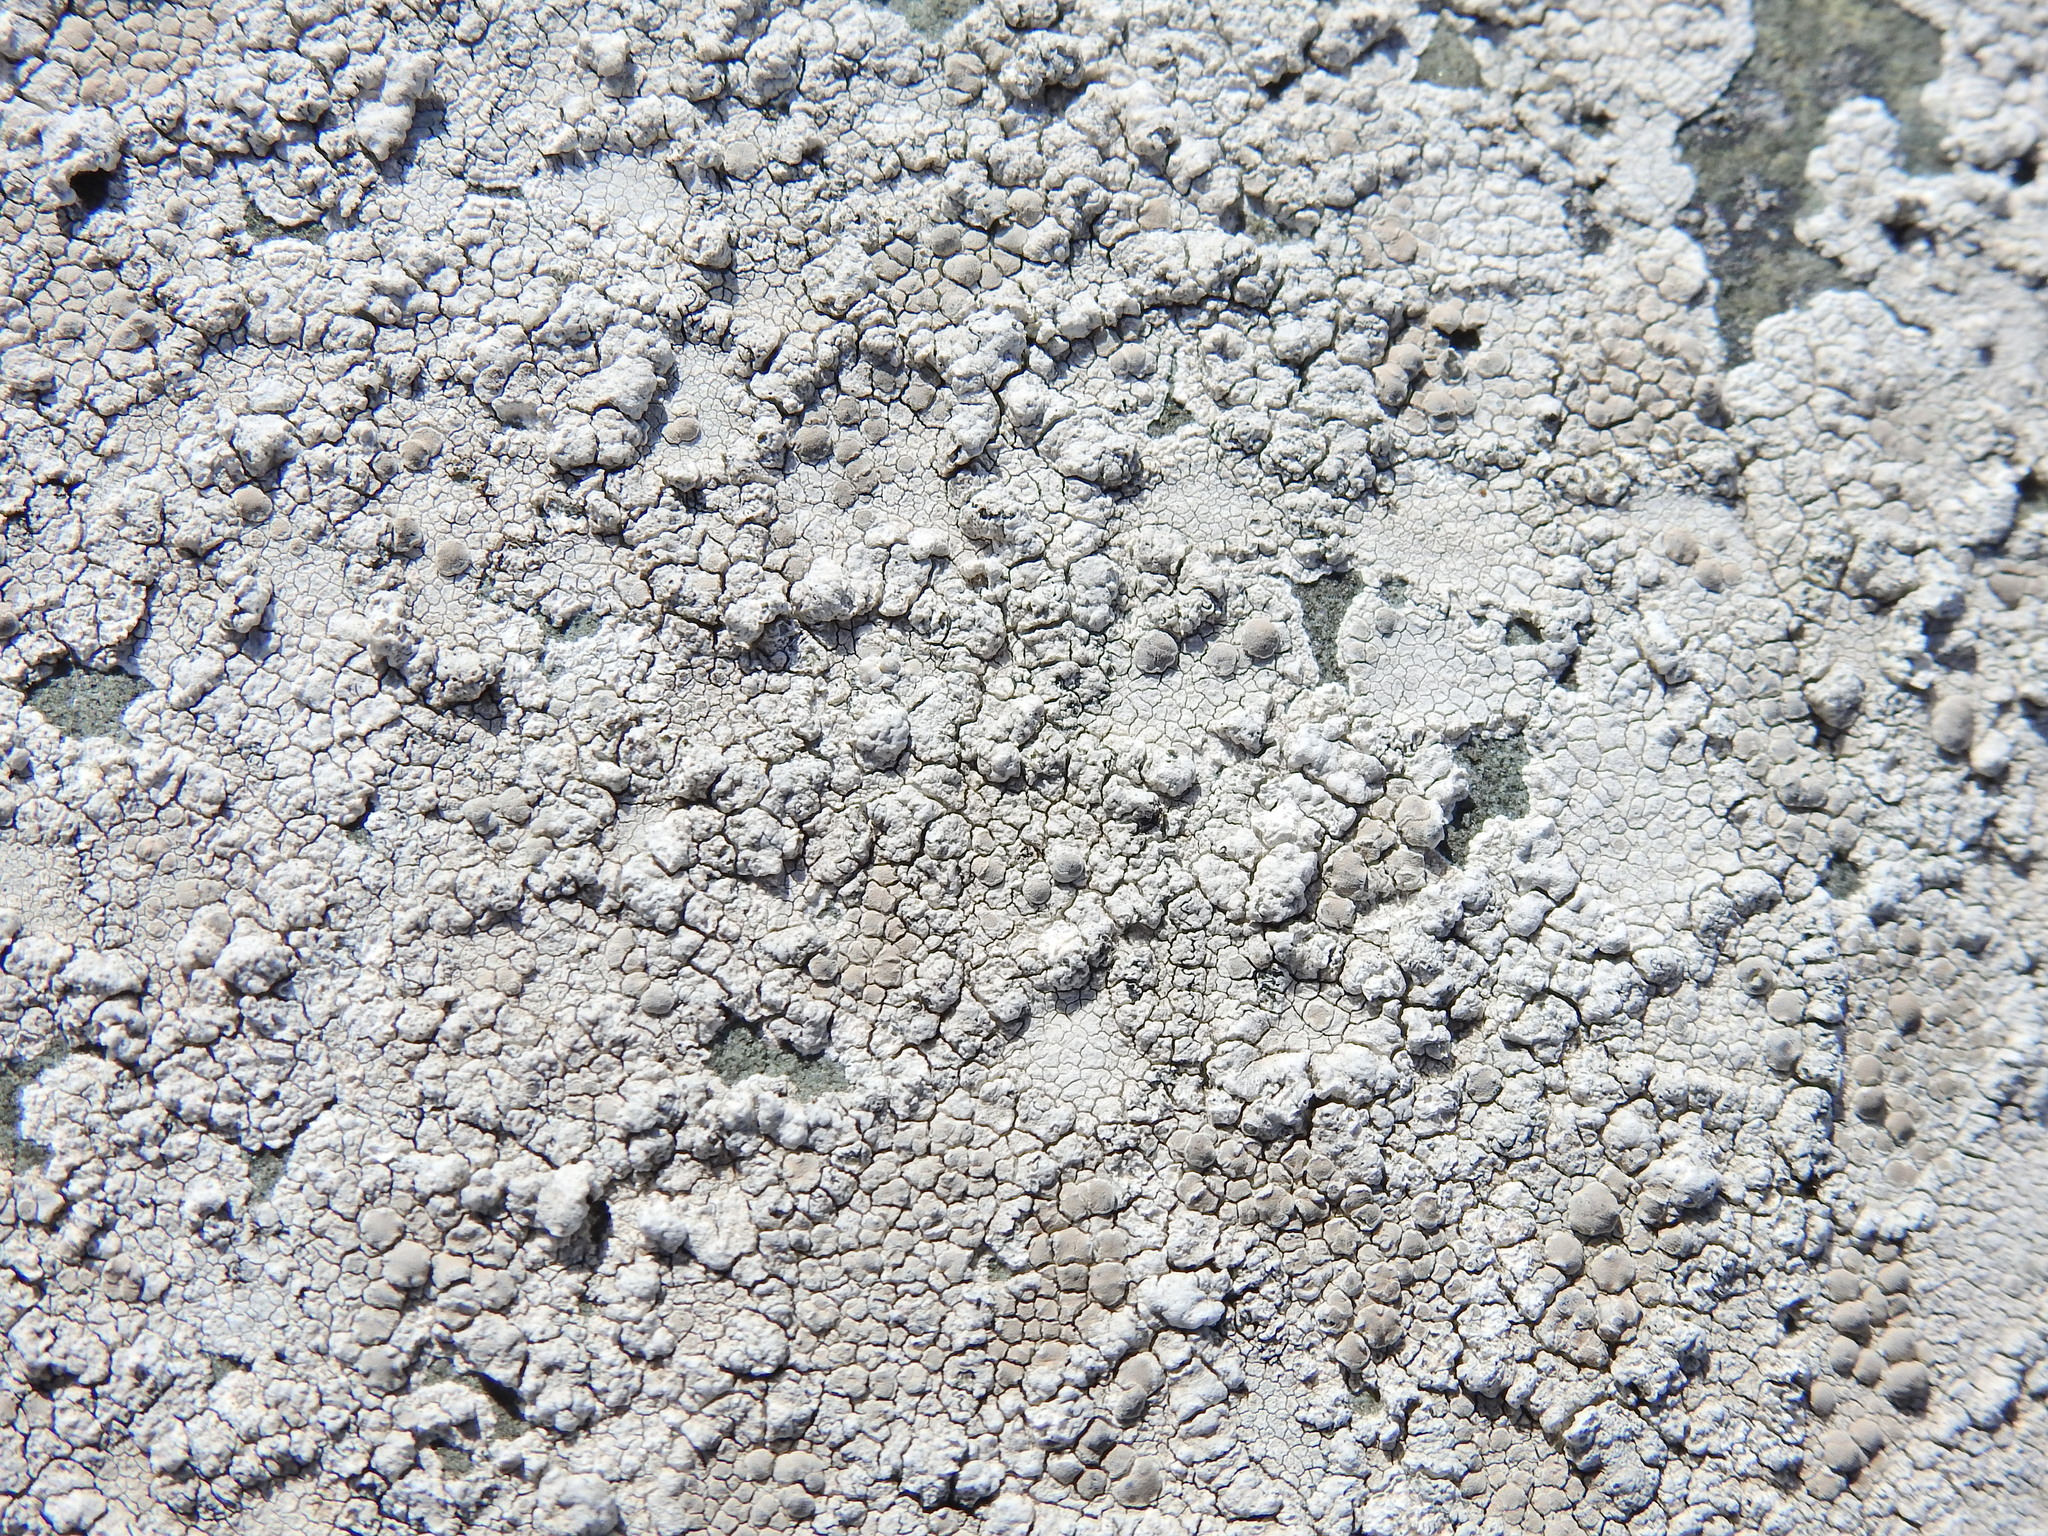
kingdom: Fungi
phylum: Ascomycota
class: Lecanoromycetes
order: Lecanorales
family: Lecanoraceae
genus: Glaucomaria
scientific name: Glaucomaria rupicola
